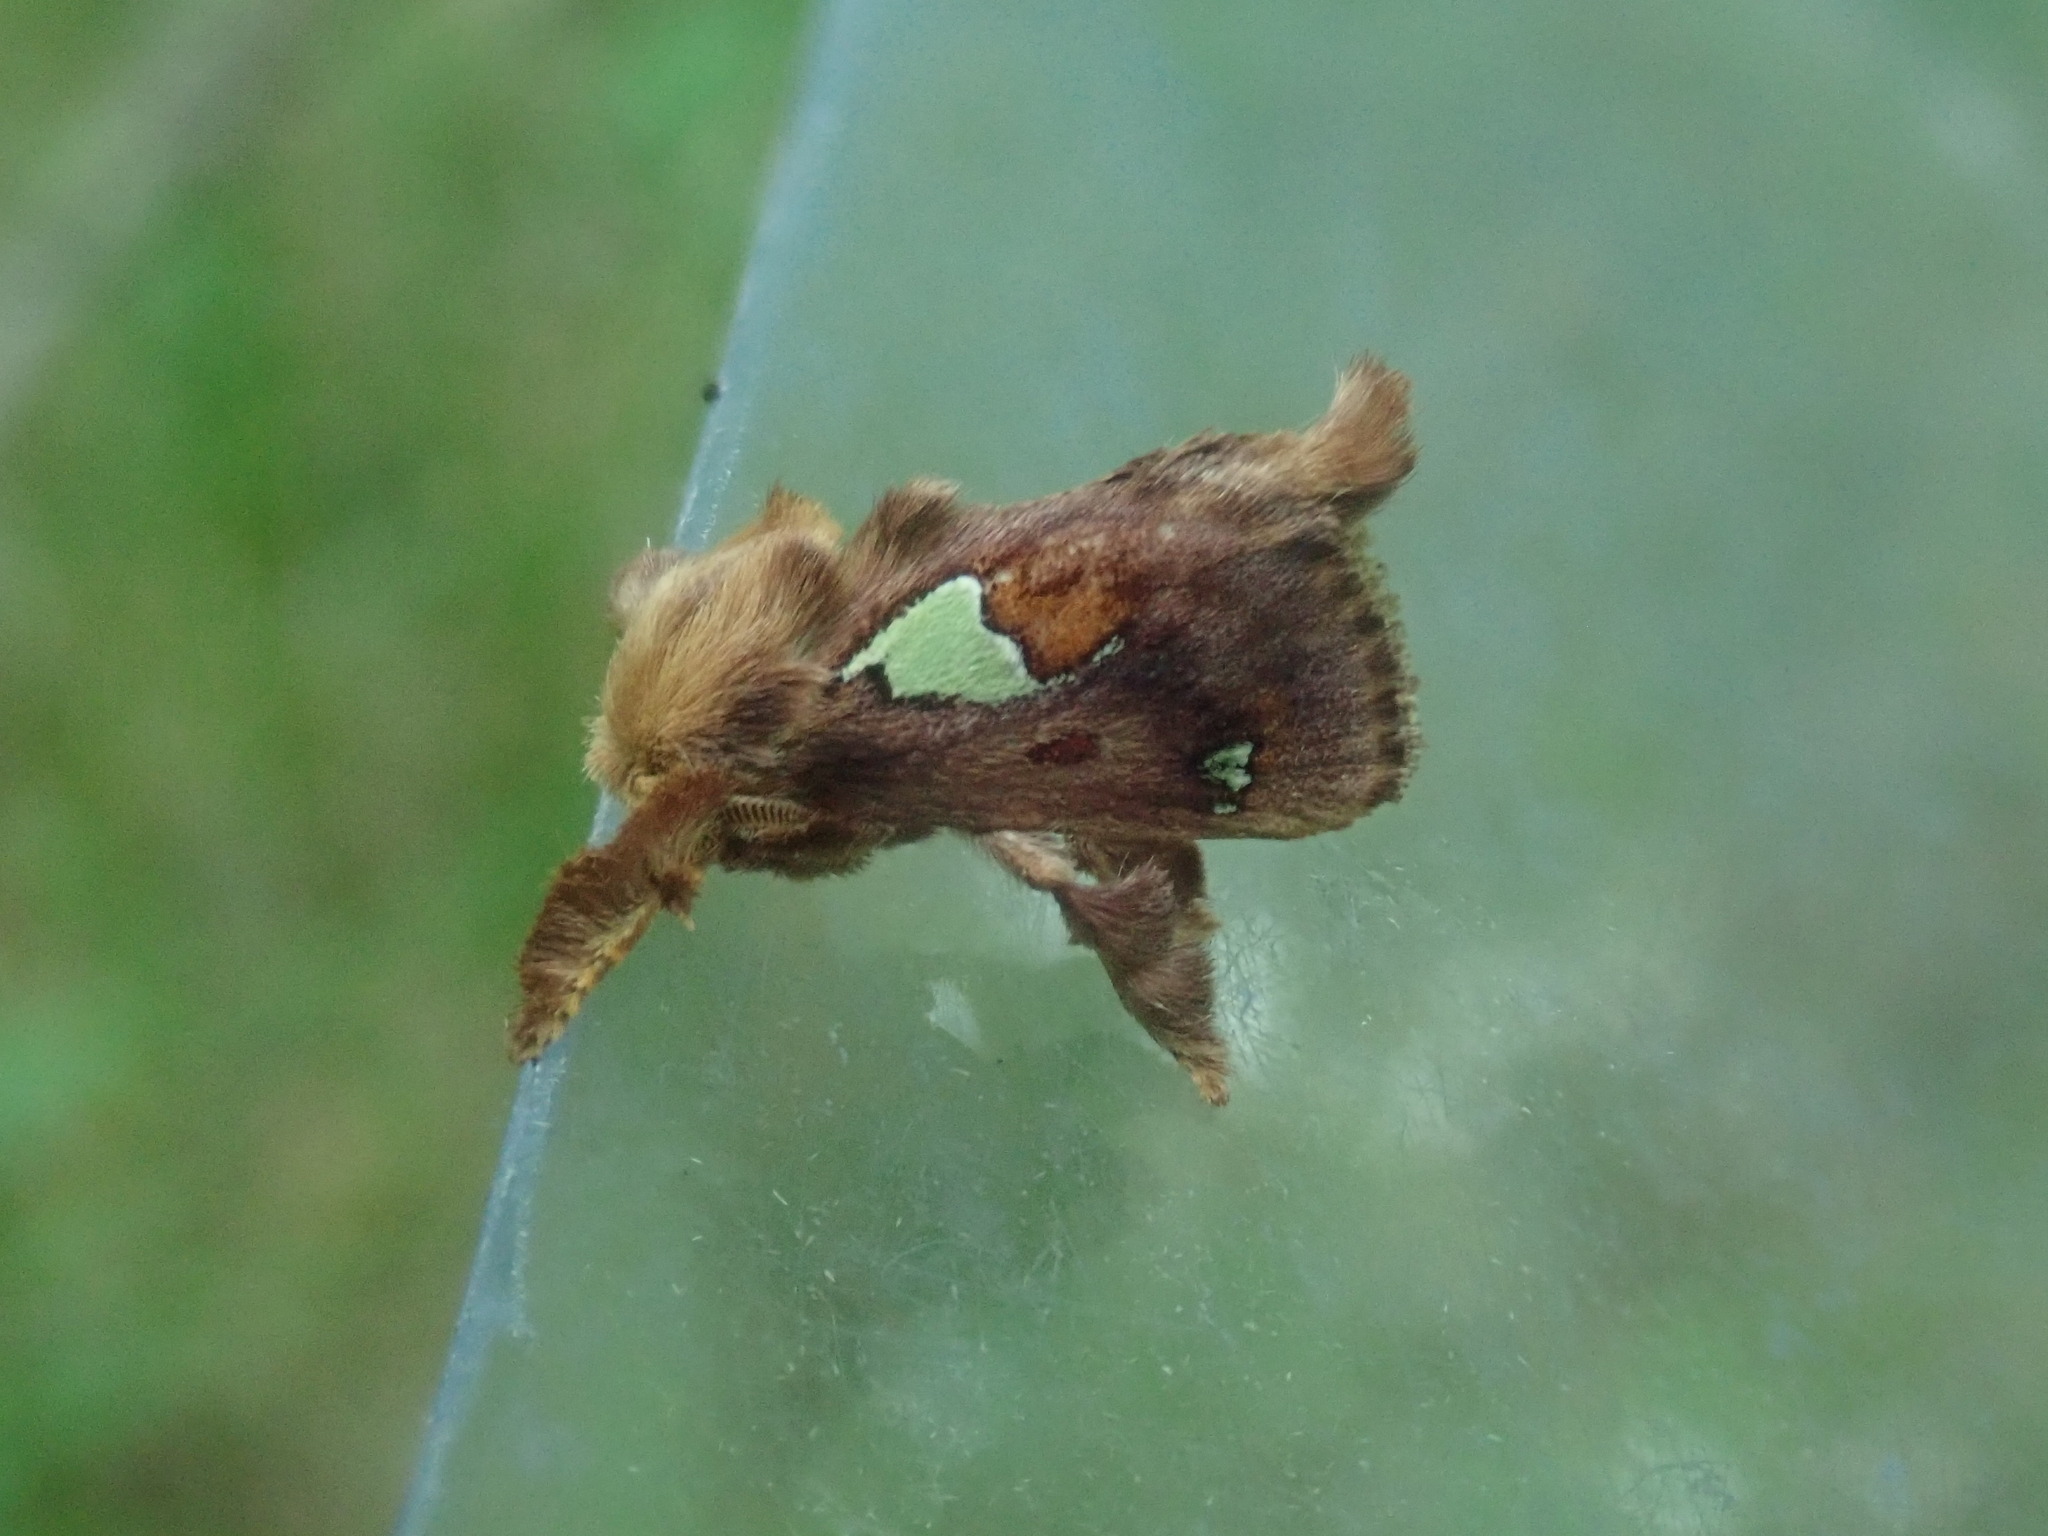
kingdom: Animalia
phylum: Arthropoda
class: Insecta
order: Lepidoptera
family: Limacodidae
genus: Euclea
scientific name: Euclea delphinii
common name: Spiny oak-slug moth
